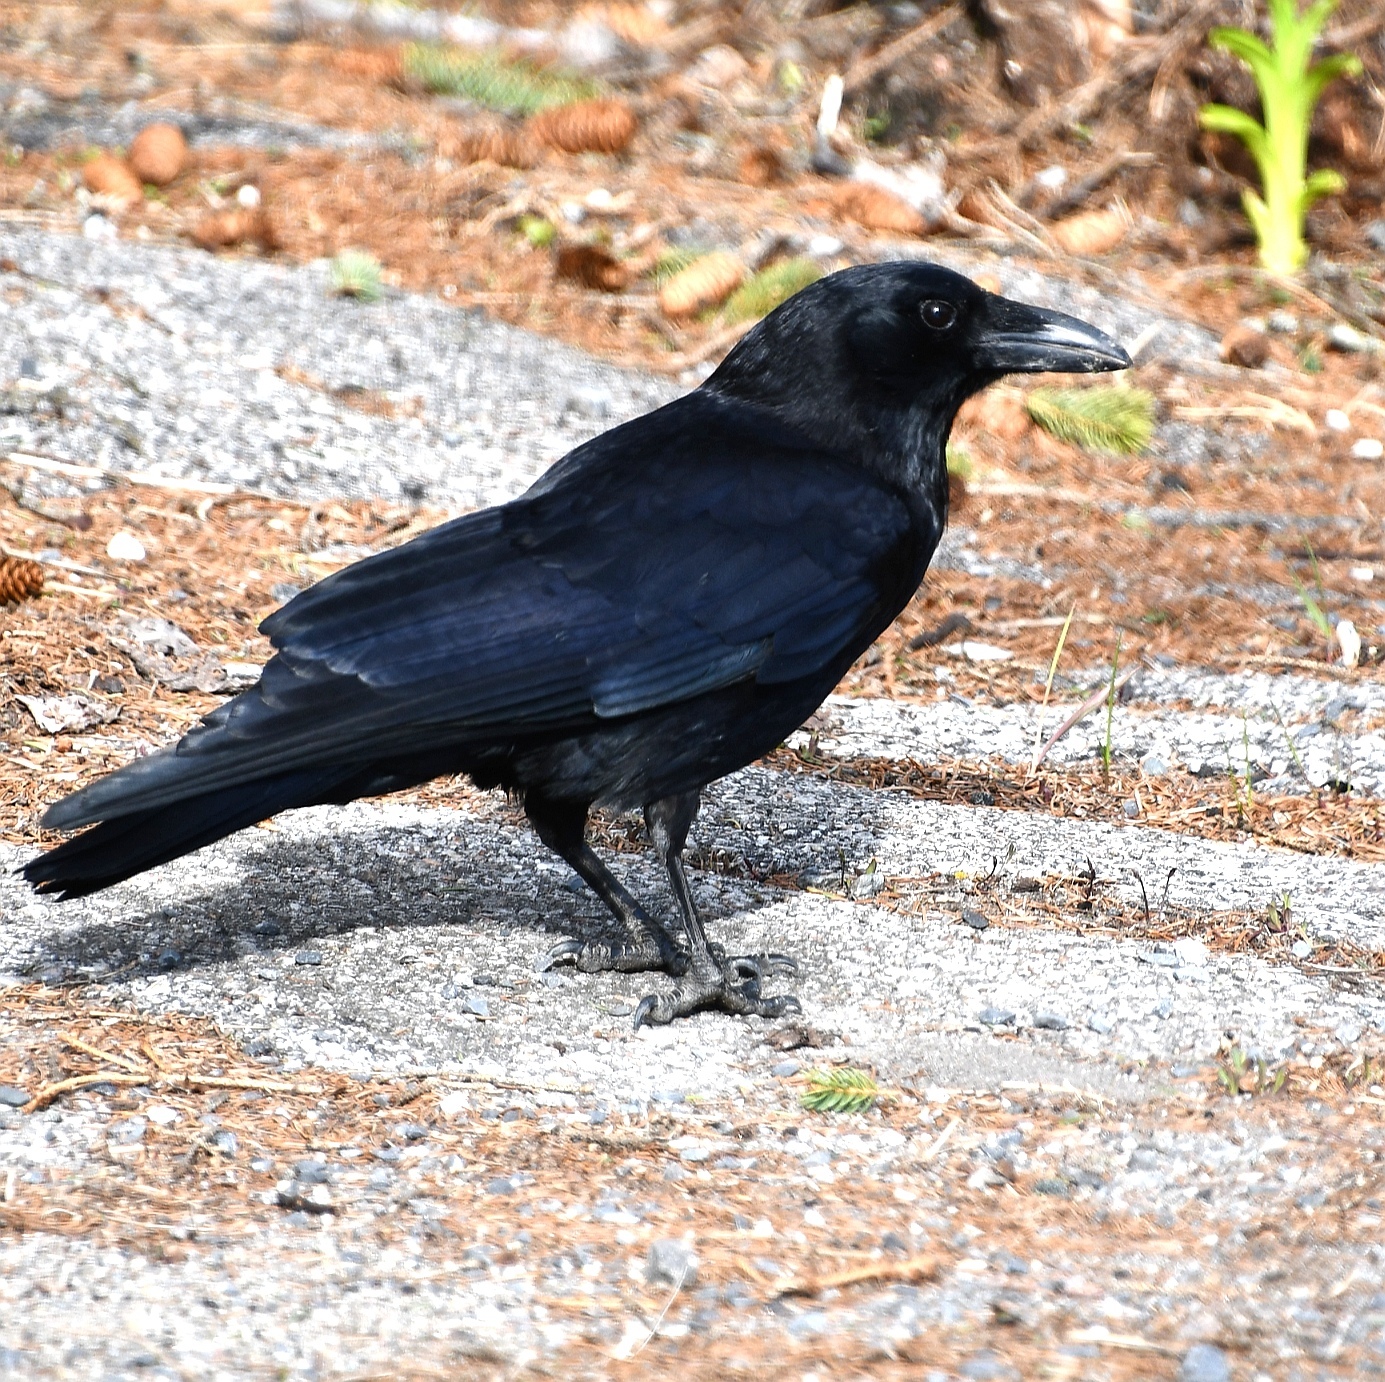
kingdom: Animalia
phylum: Chordata
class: Aves
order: Passeriformes
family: Corvidae
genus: Corvus
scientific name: Corvus brachyrhynchos
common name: American crow
